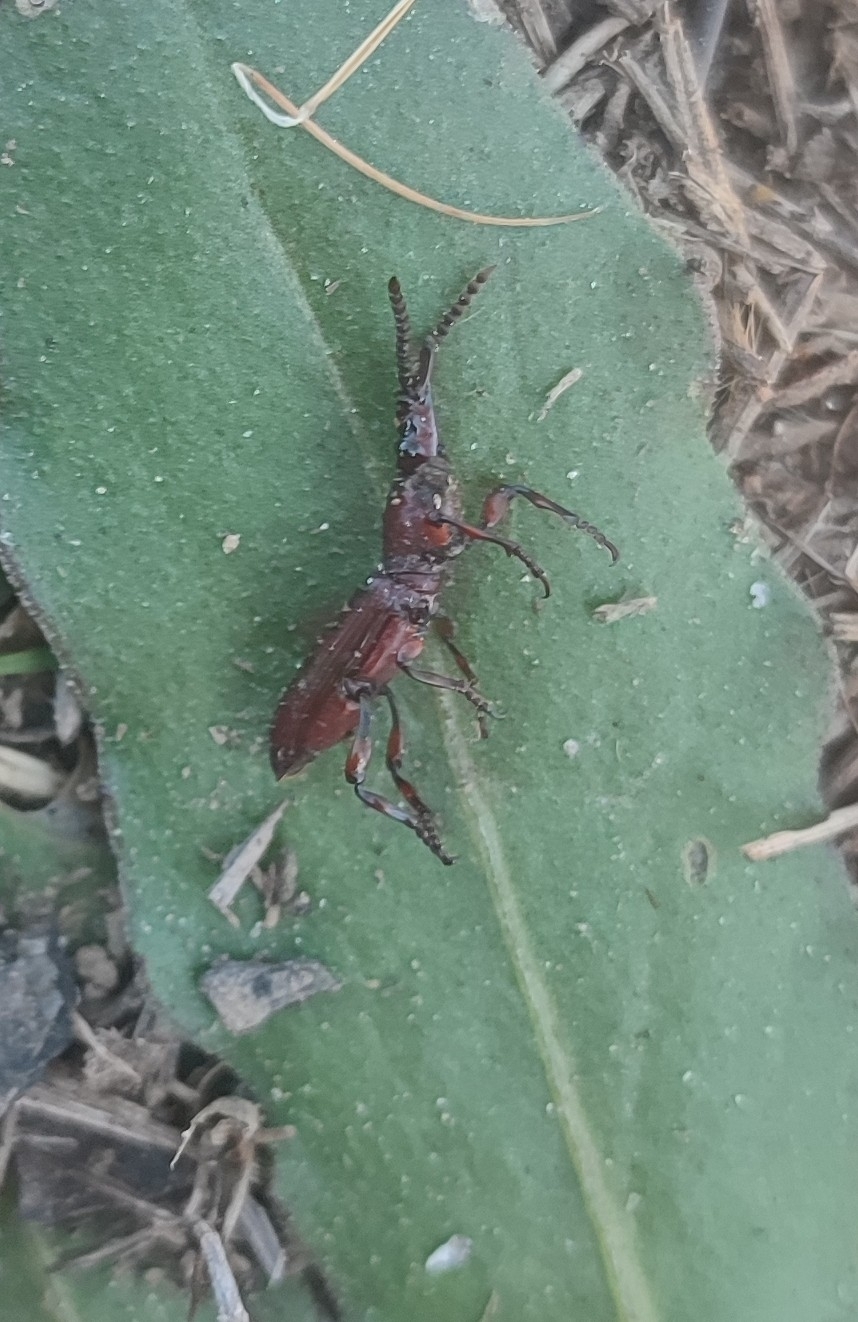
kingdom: Animalia
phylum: Arthropoda
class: Insecta
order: Coleoptera
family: Brentidae
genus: Amorphocephala
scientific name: Amorphocephala coronata
